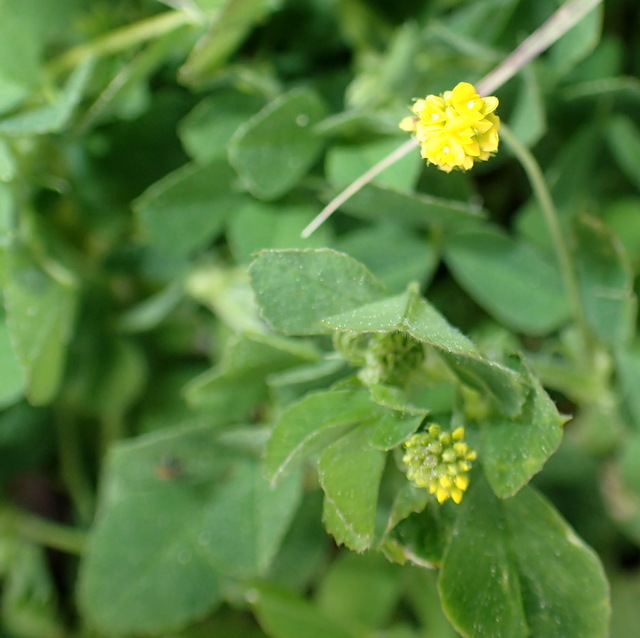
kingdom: Plantae
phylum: Tracheophyta
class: Magnoliopsida
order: Fabales
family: Fabaceae
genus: Medicago
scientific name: Medicago lupulina
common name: Black medick
